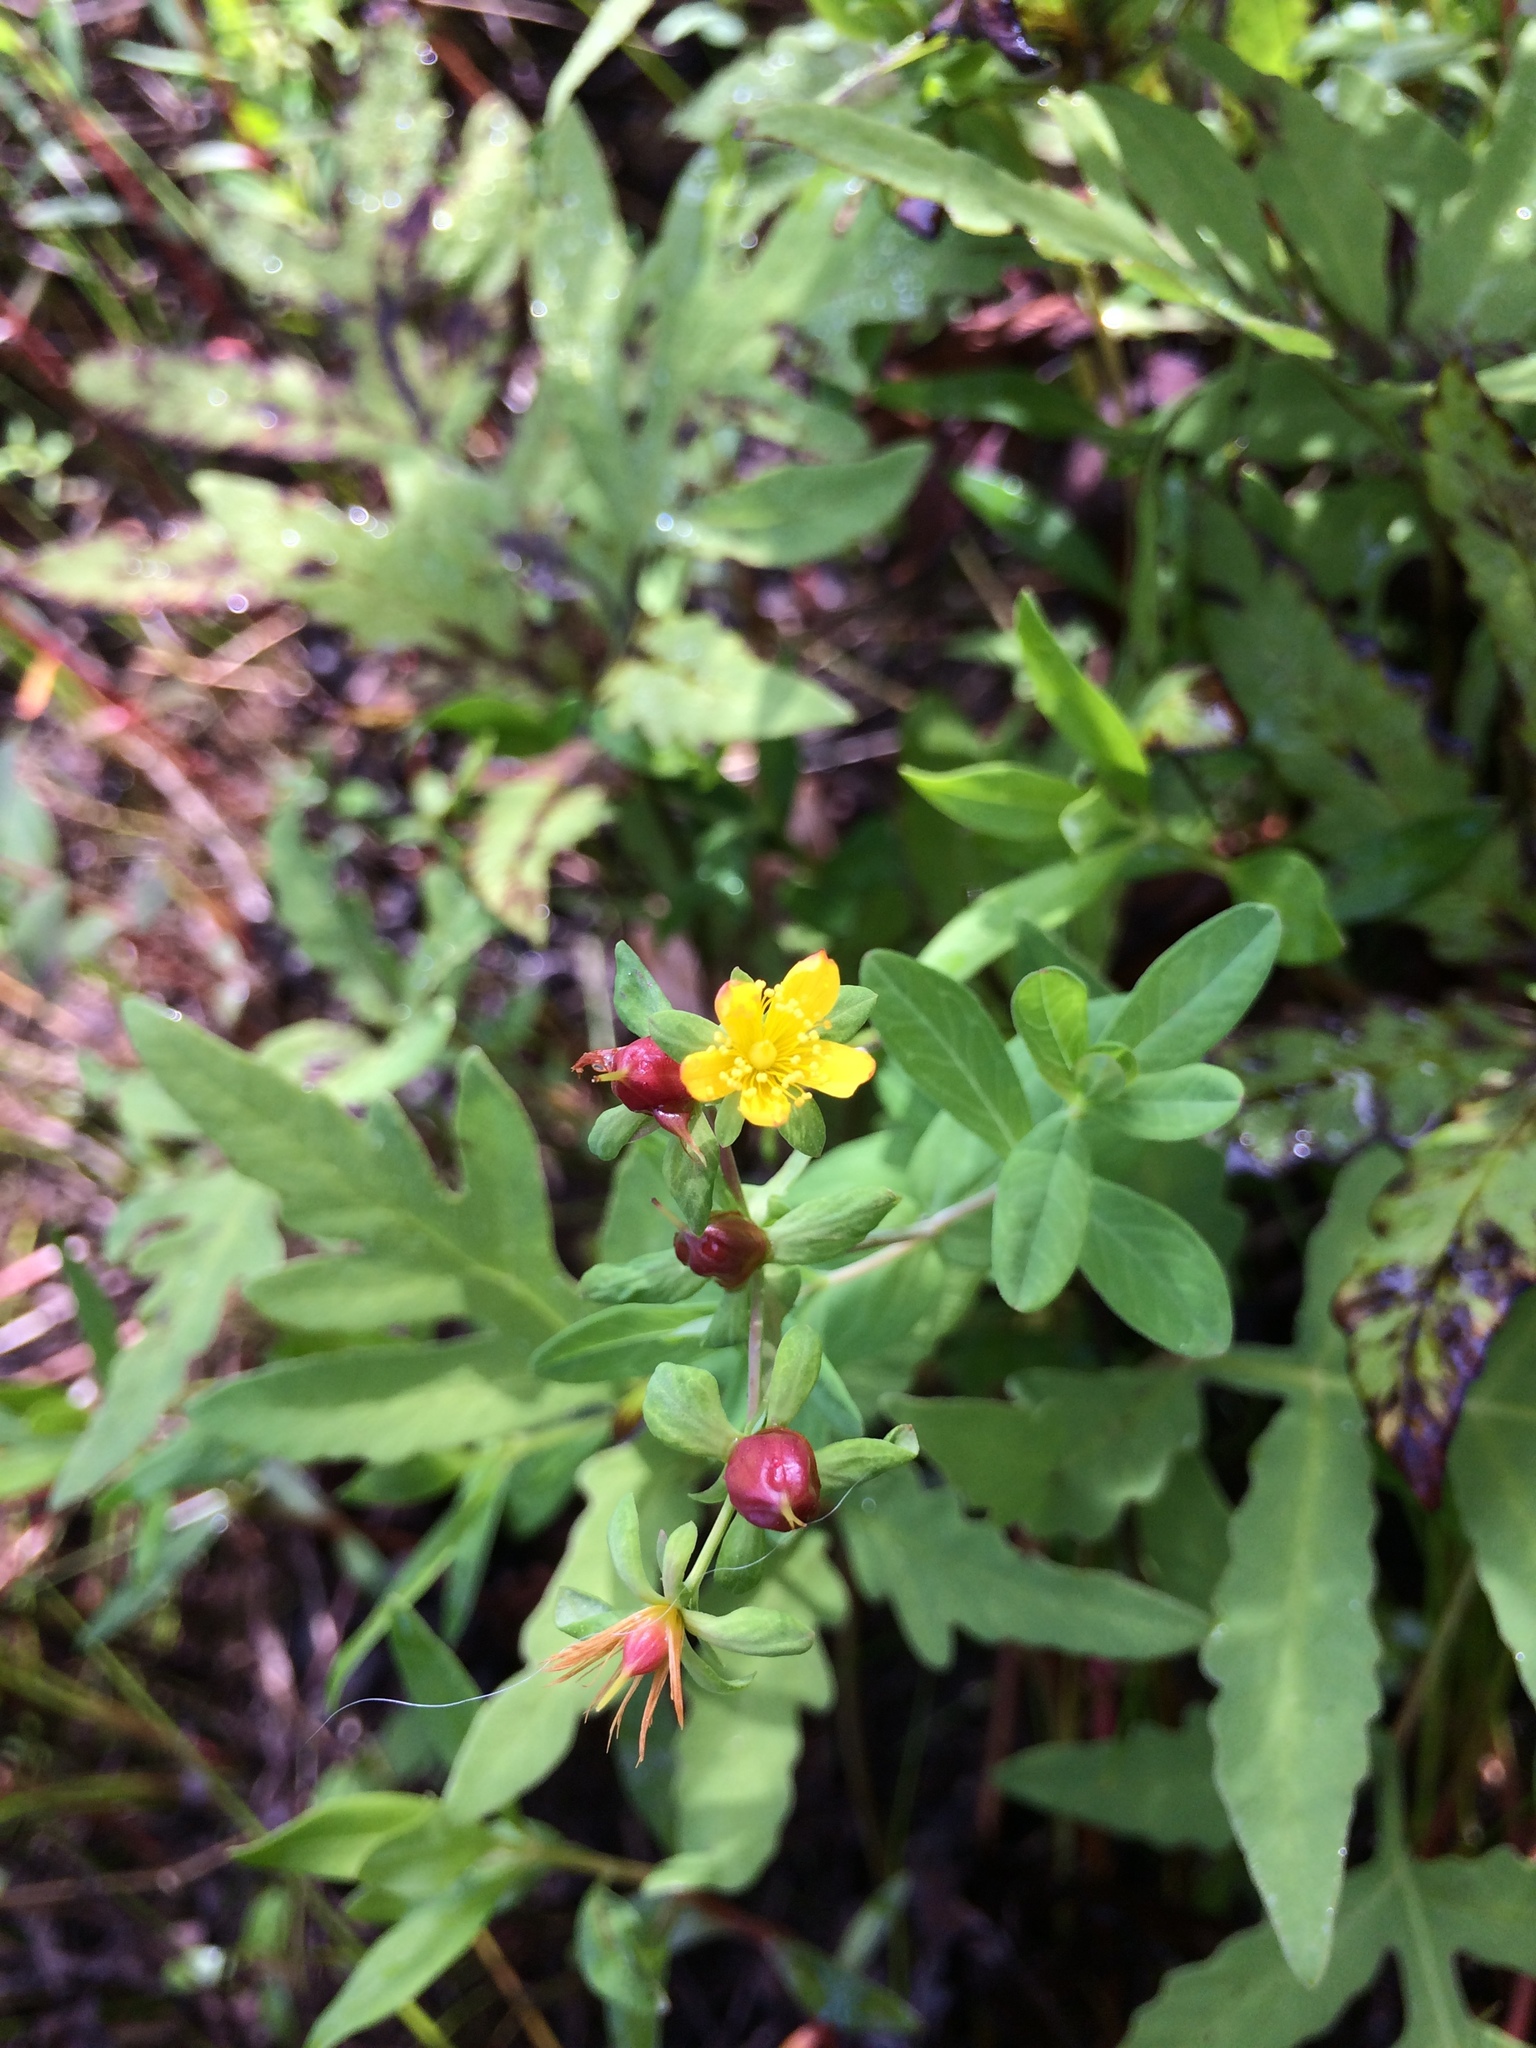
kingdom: Plantae
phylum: Tracheophyta
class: Magnoliopsida
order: Malpighiales
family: Hypericaceae
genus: Hypericum
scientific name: Hypericum ellipticum
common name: Elliptic st. john's-wort
